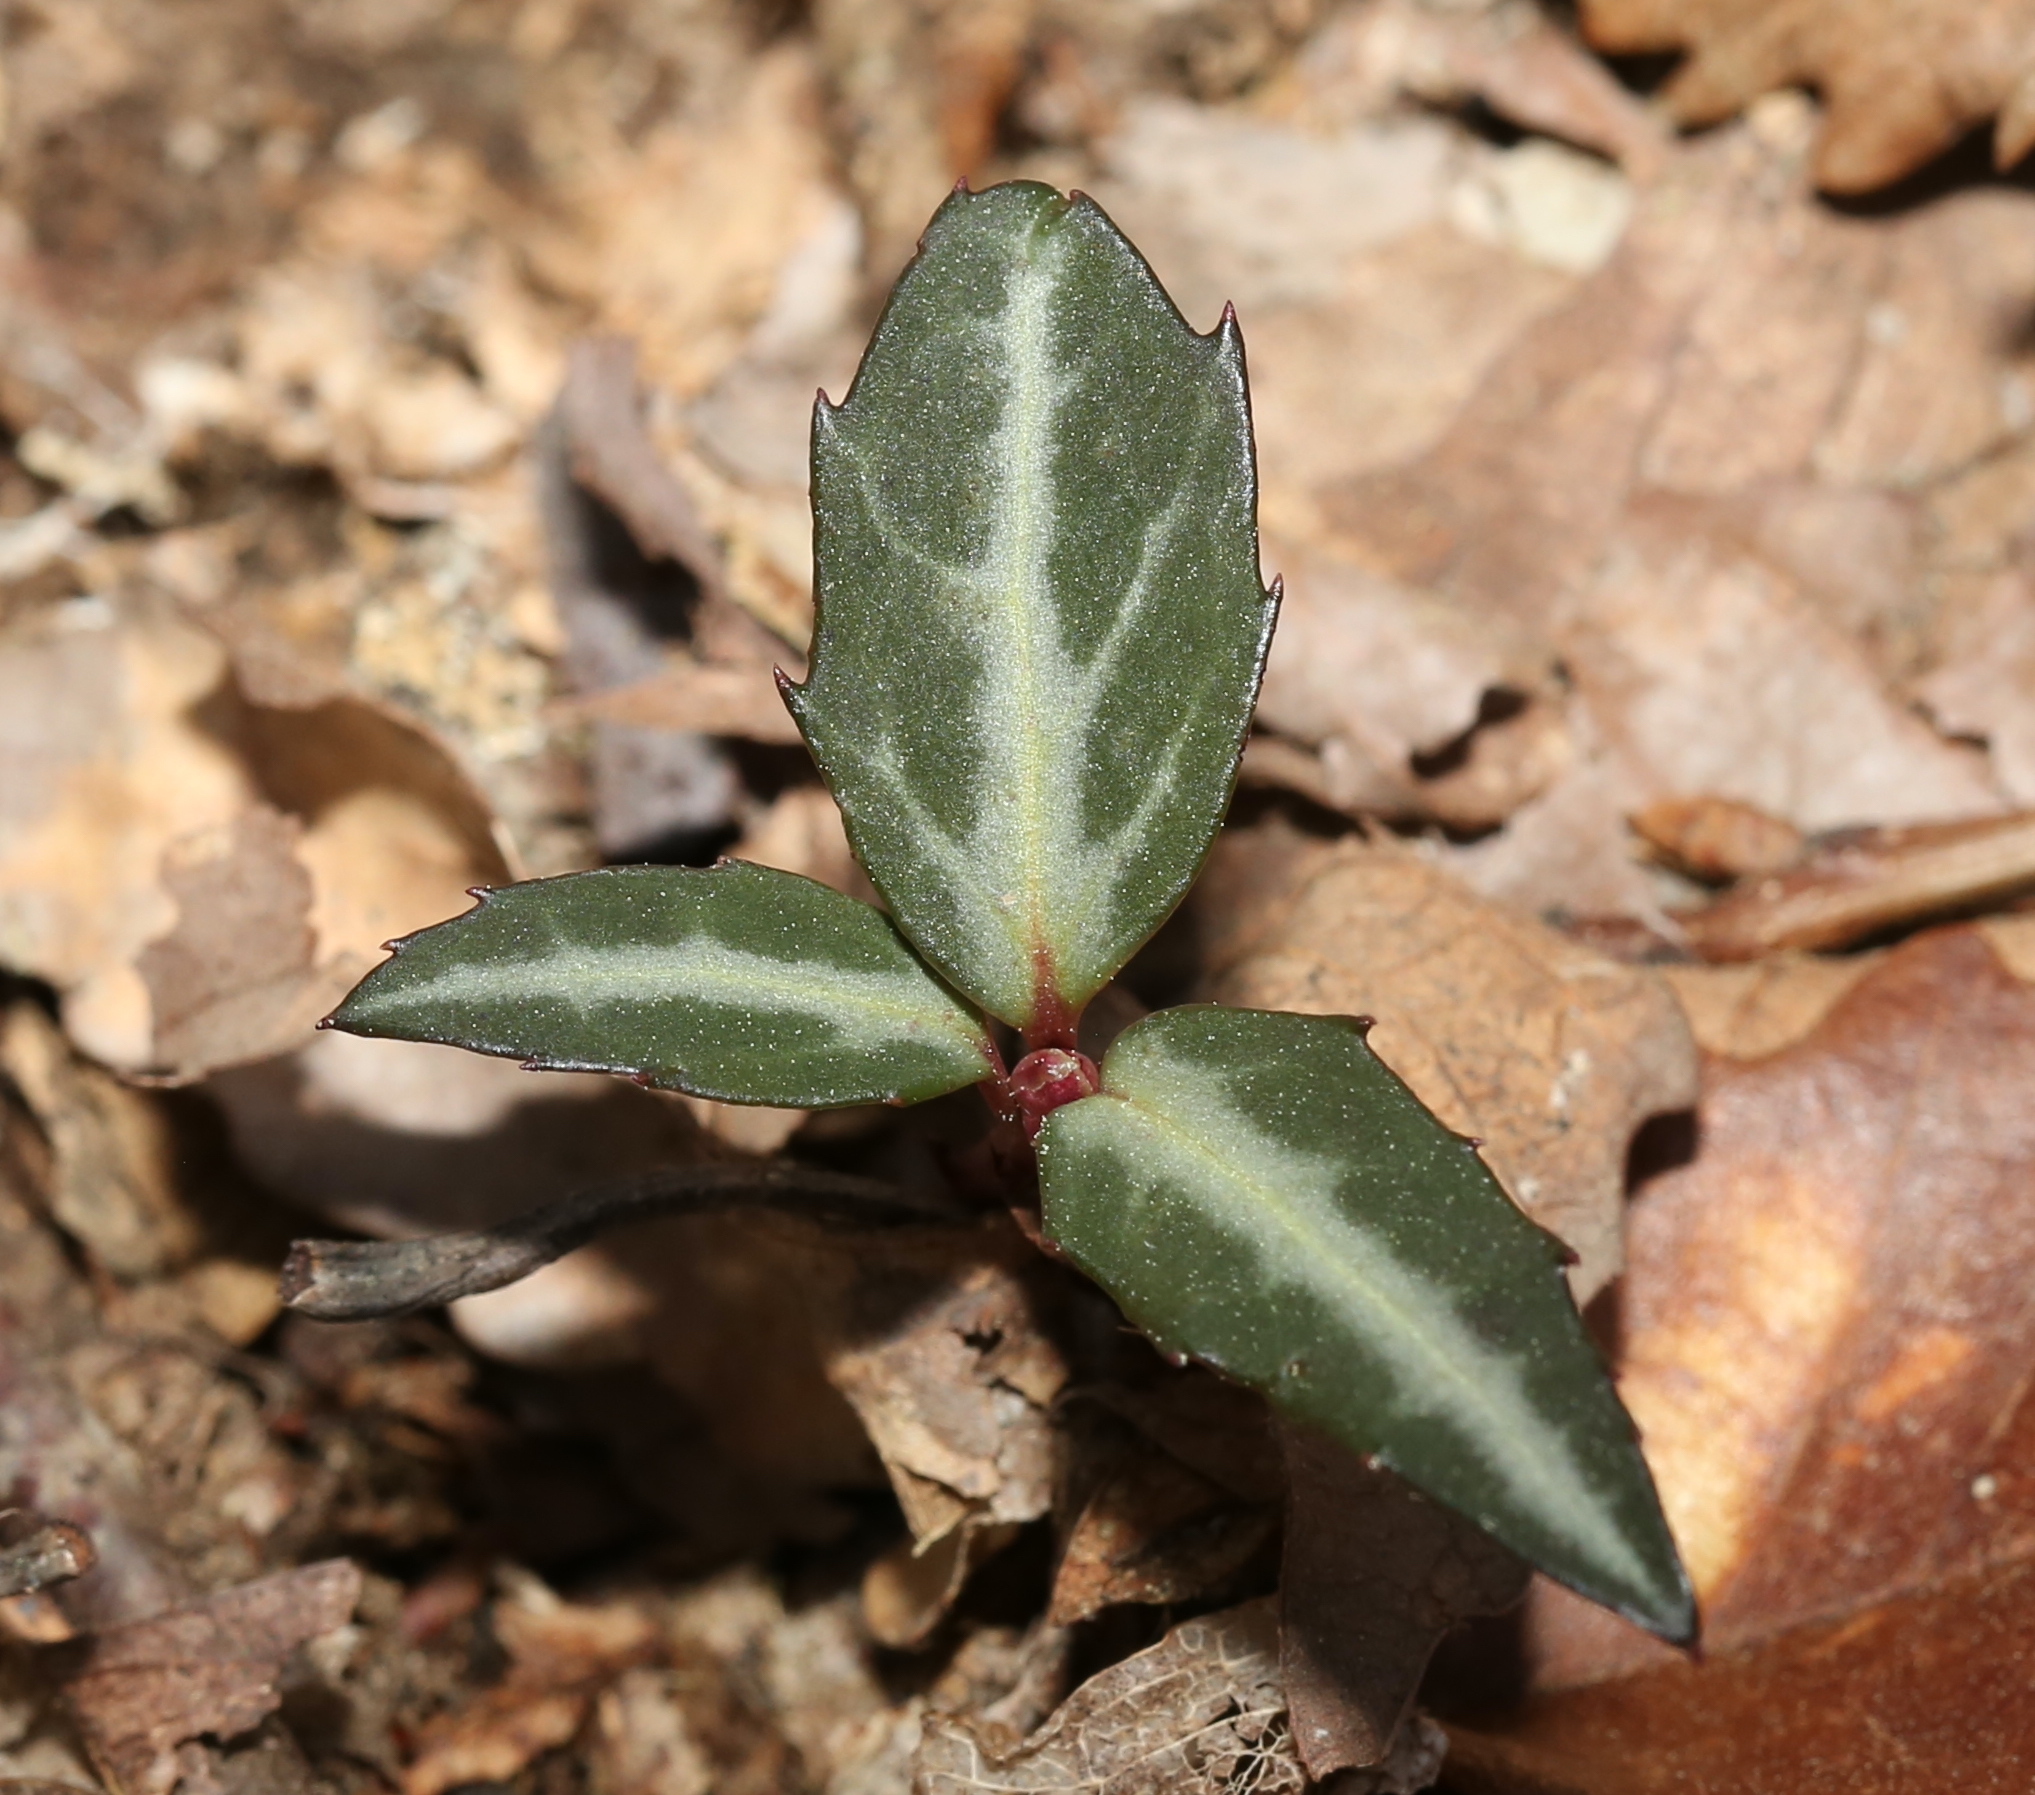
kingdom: Plantae
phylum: Tracheophyta
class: Magnoliopsida
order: Ericales
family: Ericaceae
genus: Chimaphila
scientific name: Chimaphila maculata
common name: Spotted pipsissewa
